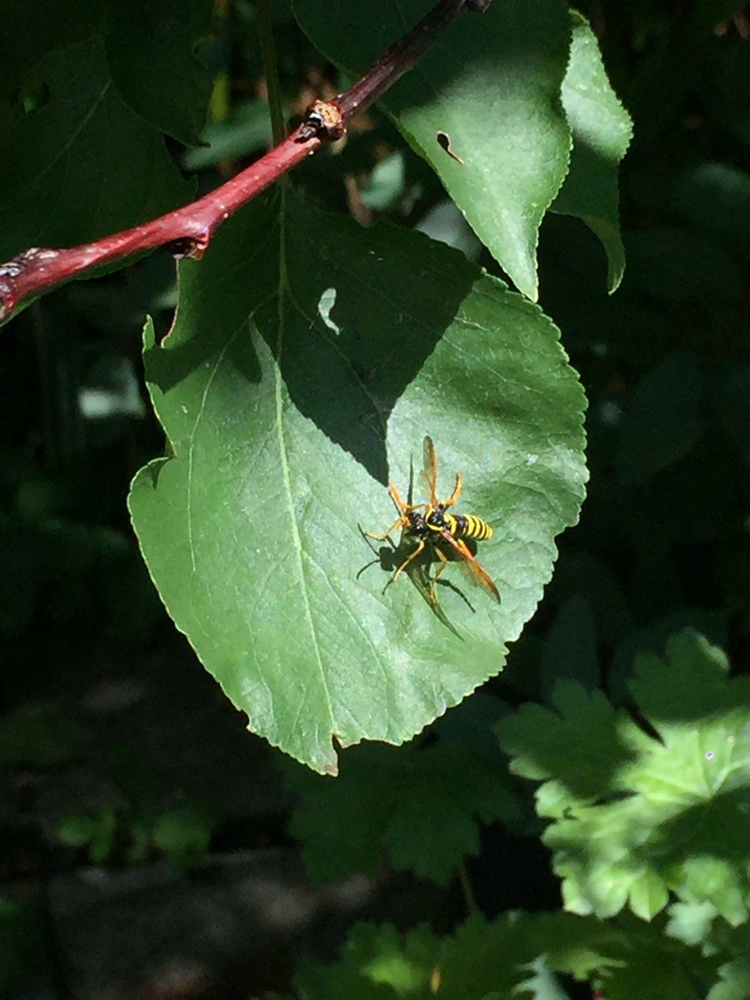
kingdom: Animalia
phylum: Arthropoda
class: Insecta
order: Hymenoptera
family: Tenthredinidae
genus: Tenthredo
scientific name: Tenthredo scrophulariae
